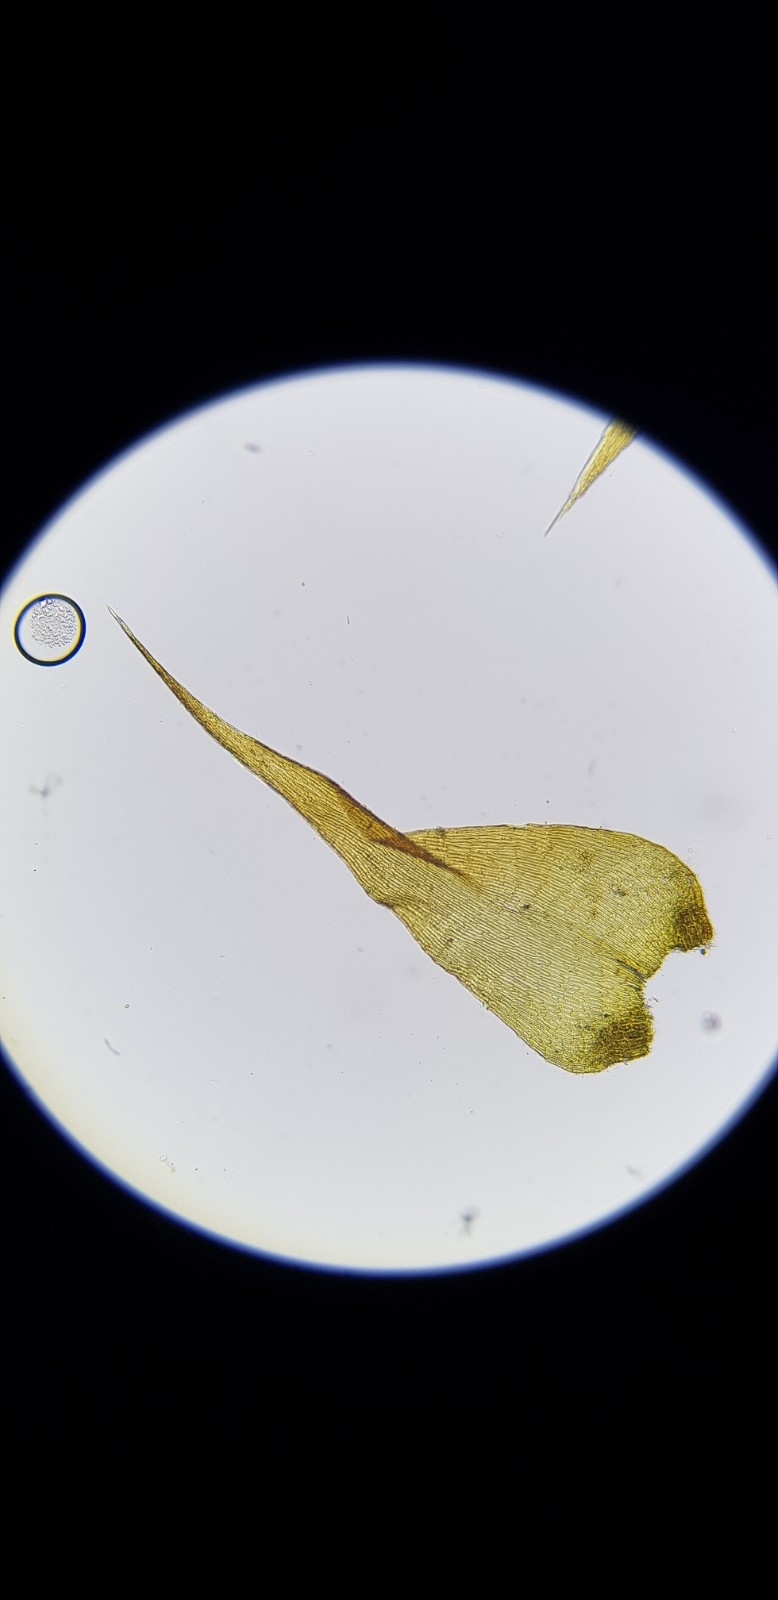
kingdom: Plantae
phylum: Bryophyta
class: Bryopsida
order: Hypnales
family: Amblystegiaceae
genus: Campylium
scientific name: Campylium protensum
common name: Dull starry fen moss
